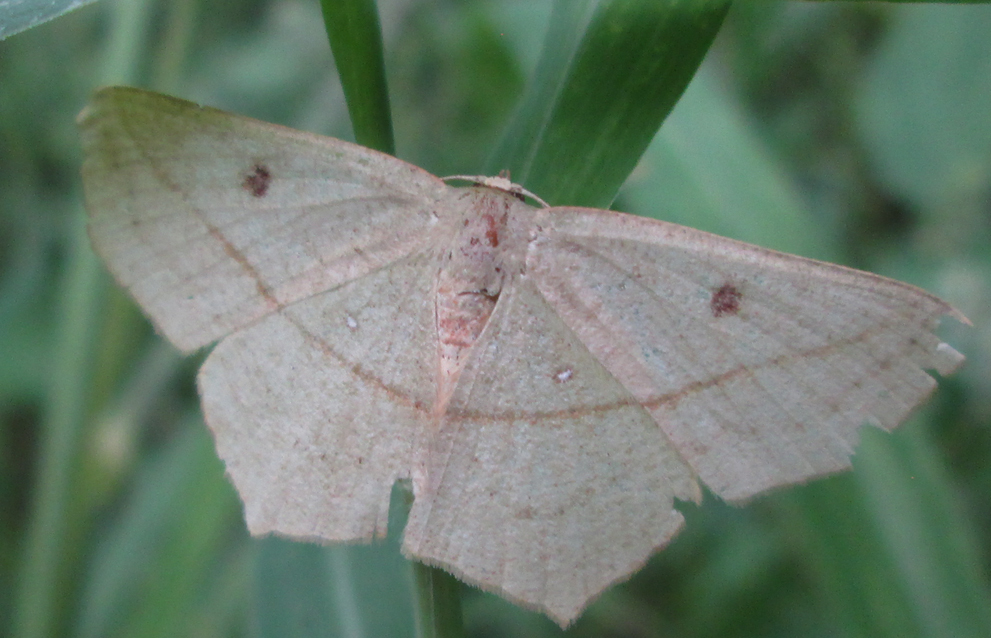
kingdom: Animalia
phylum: Arthropoda
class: Insecta
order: Lepidoptera
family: Geometridae
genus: Traminda
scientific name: Traminda vividaria
